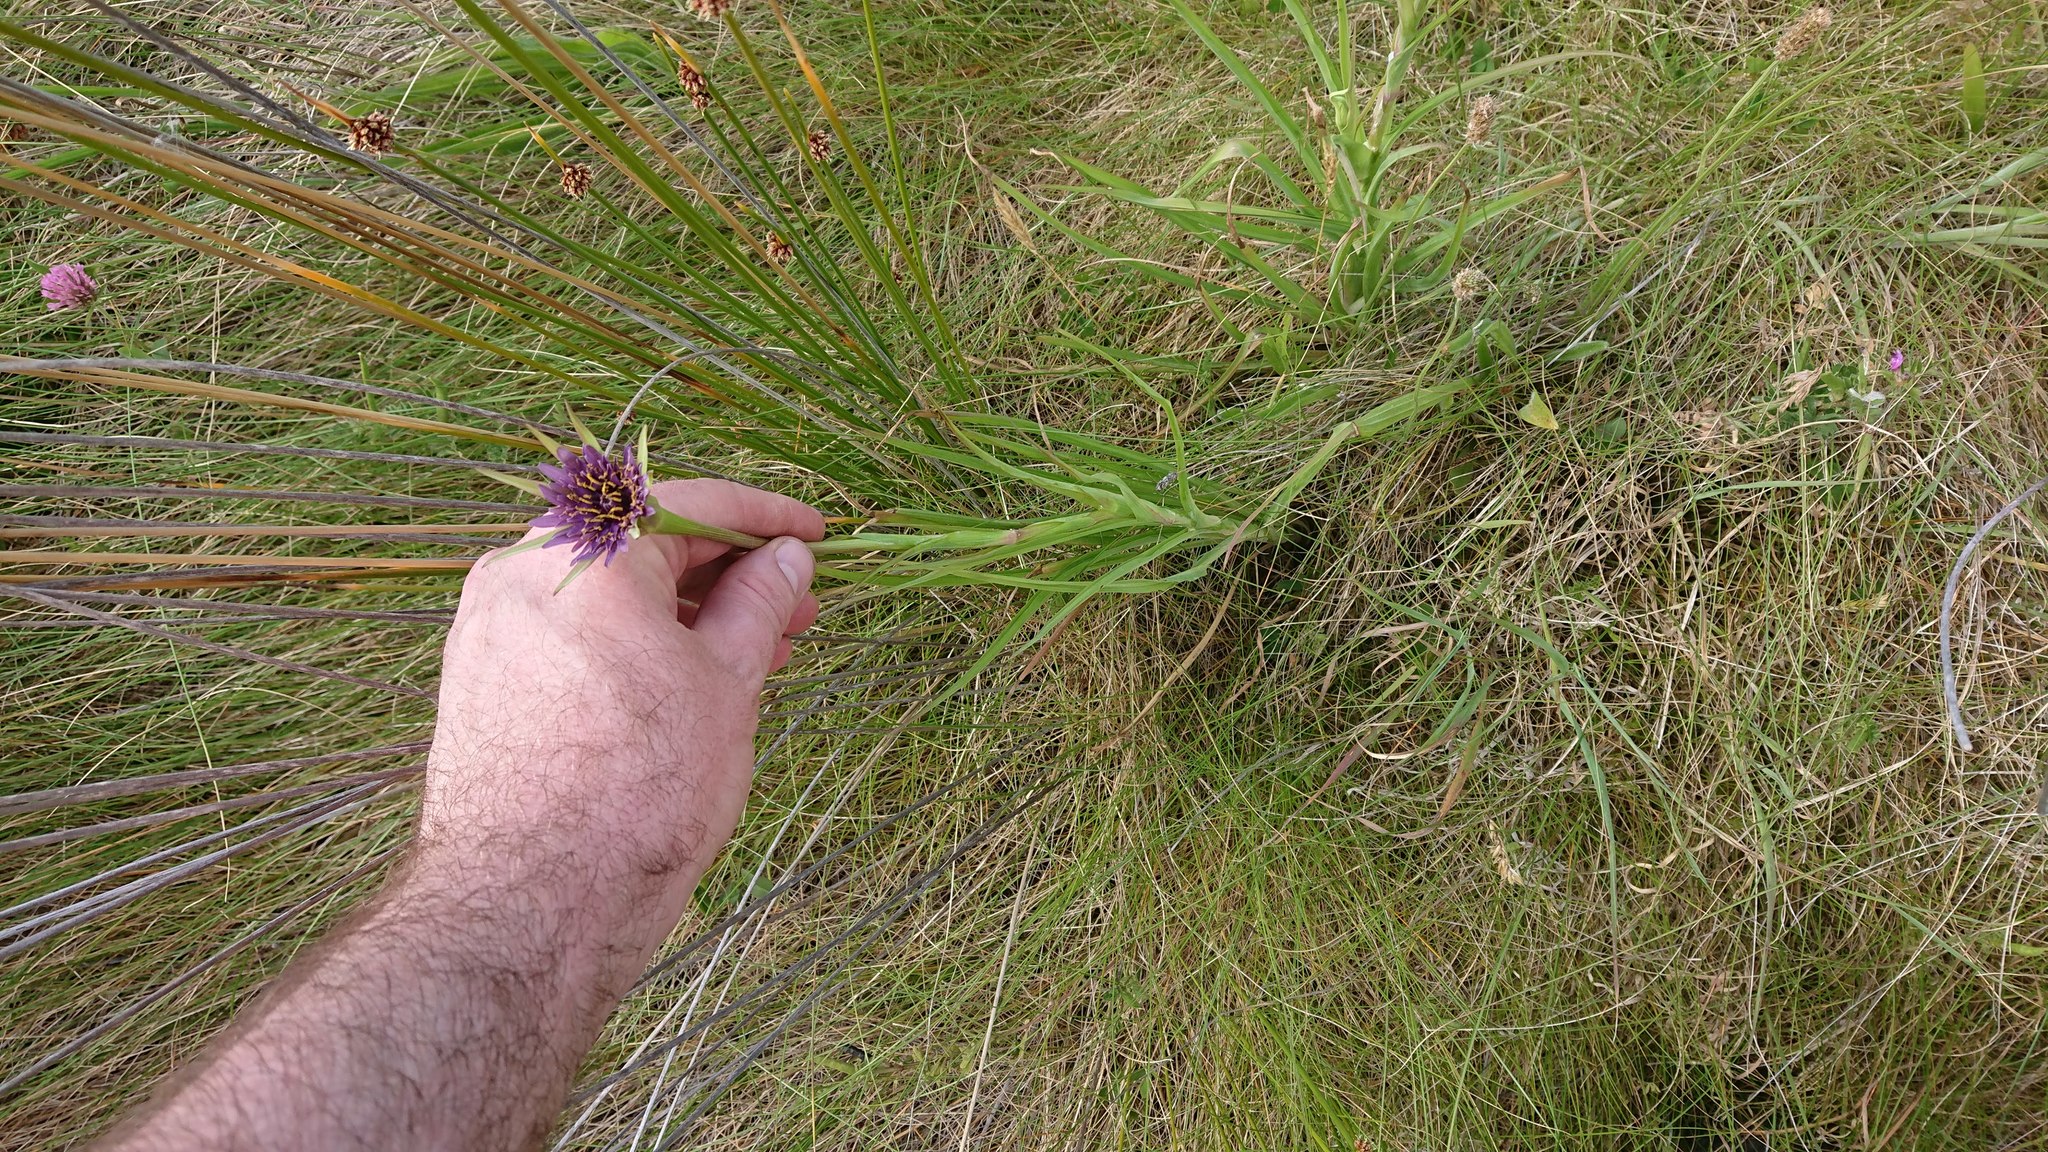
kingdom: Plantae
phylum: Tracheophyta
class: Magnoliopsida
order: Asterales
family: Asteraceae
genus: Tragopogon
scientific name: Tragopogon porrifolius
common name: Salsify
